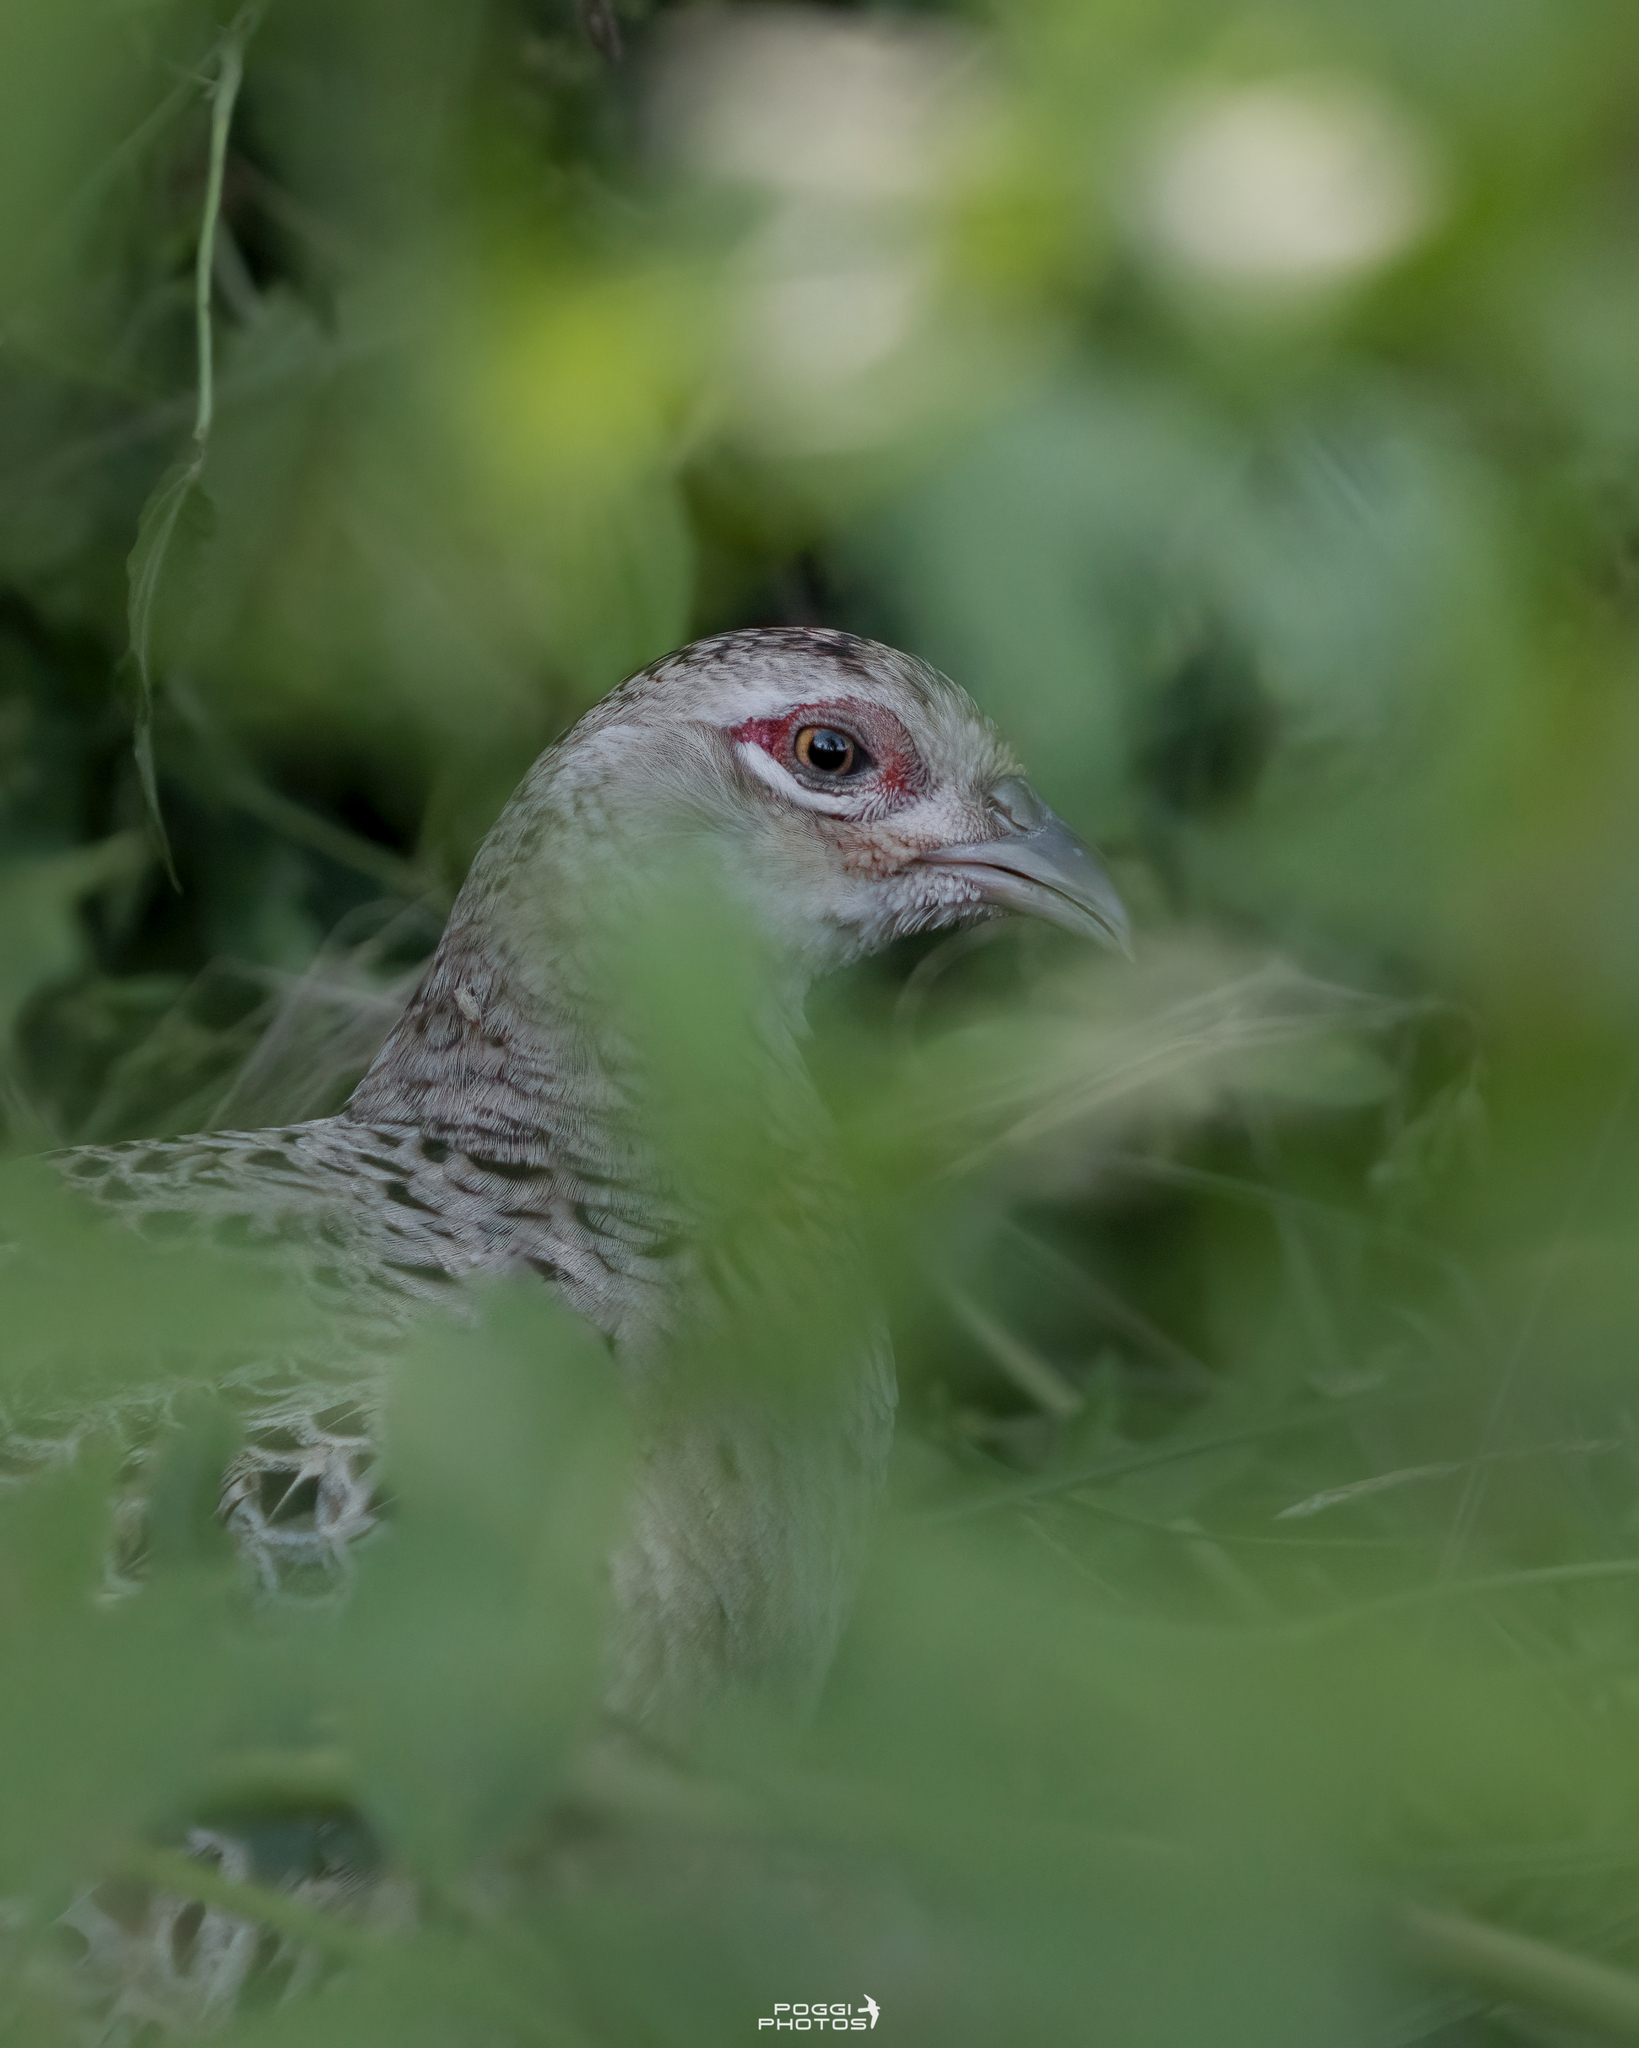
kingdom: Animalia
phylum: Chordata
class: Aves
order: Galliformes
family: Phasianidae
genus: Phasianus
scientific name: Phasianus colchicus
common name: Common pheasant
